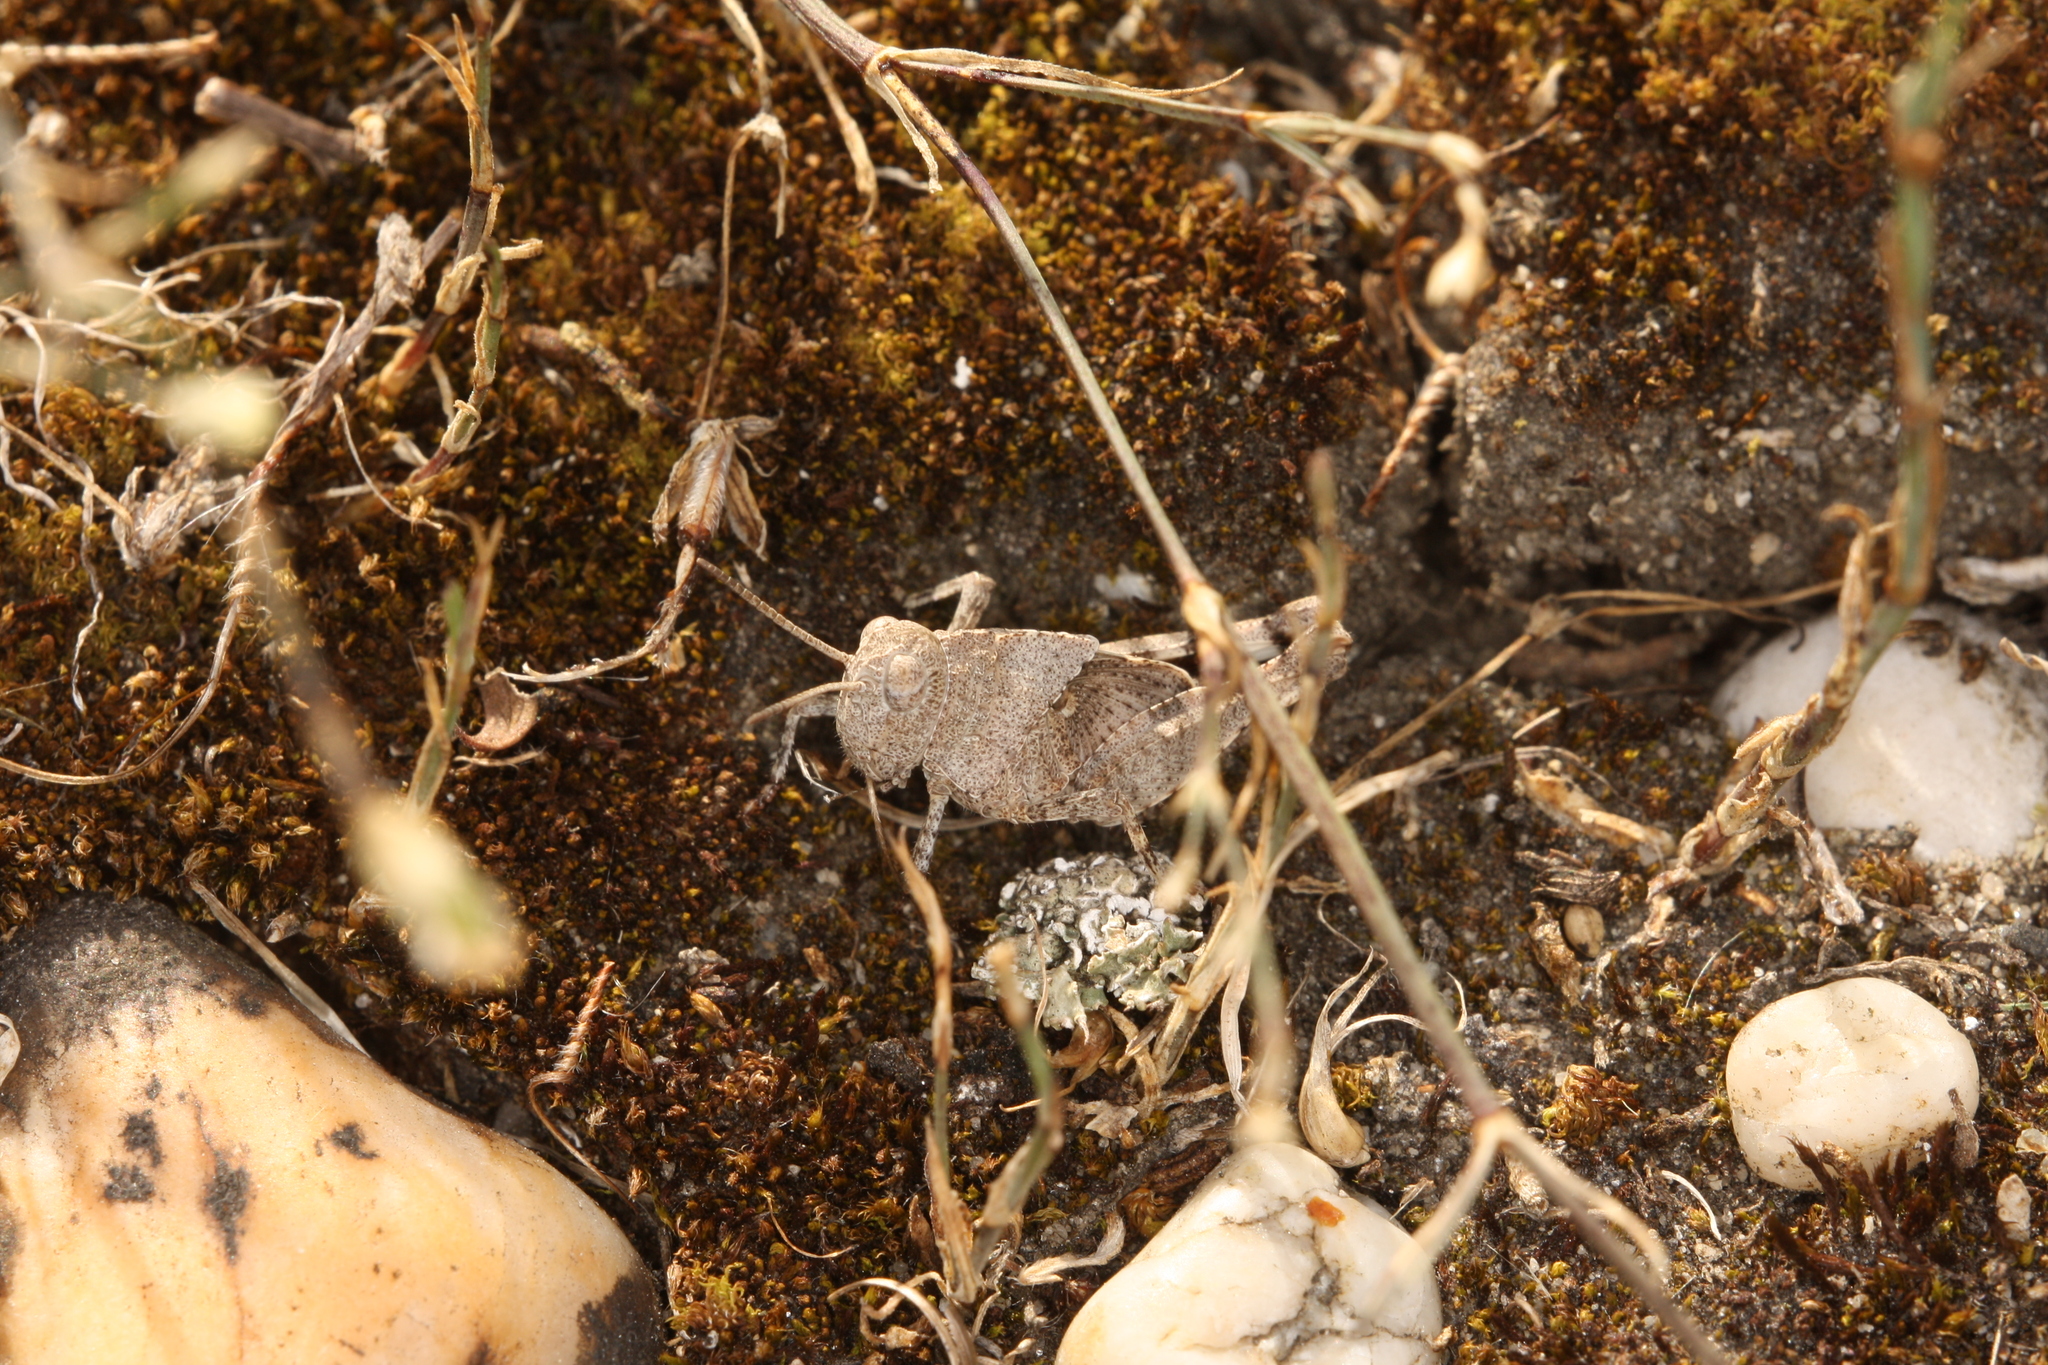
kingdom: Animalia
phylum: Arthropoda
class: Insecta
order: Orthoptera
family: Acrididae
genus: Oedipoda
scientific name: Oedipoda caerulescens
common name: Blue-winged grasshopper
